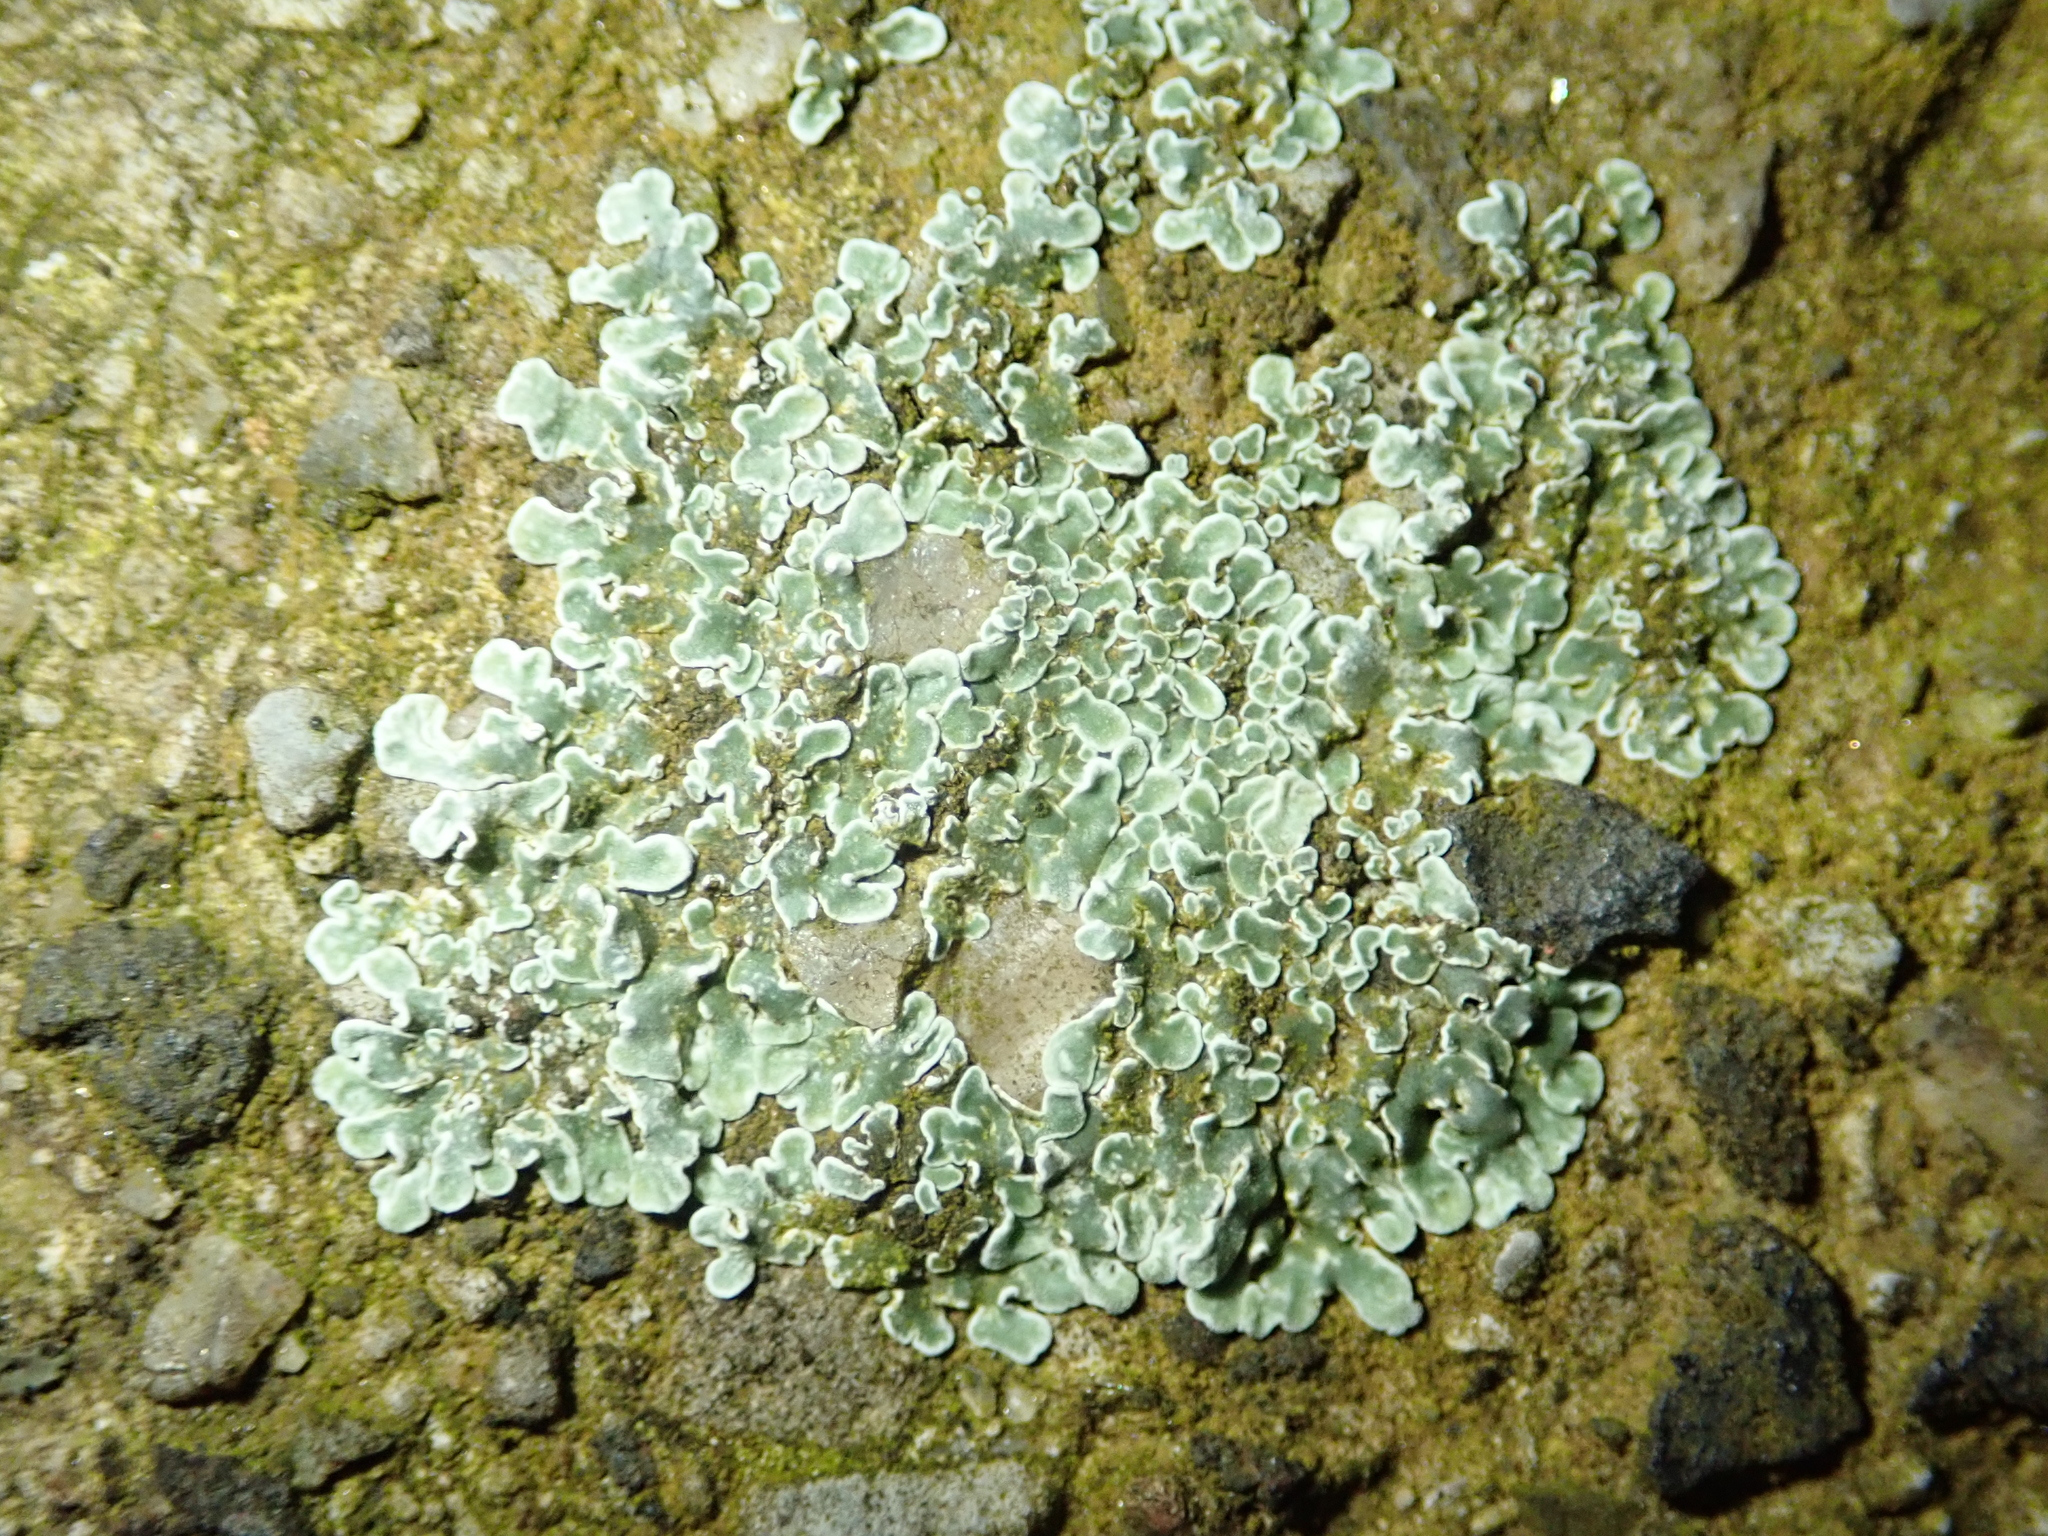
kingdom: Fungi
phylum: Ascomycota
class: Lecanoromycetes
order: Lecanorales
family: Lecanoraceae
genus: Protoparmeliopsis
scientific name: Protoparmeliopsis muralis
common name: Stonewall rim lichen
